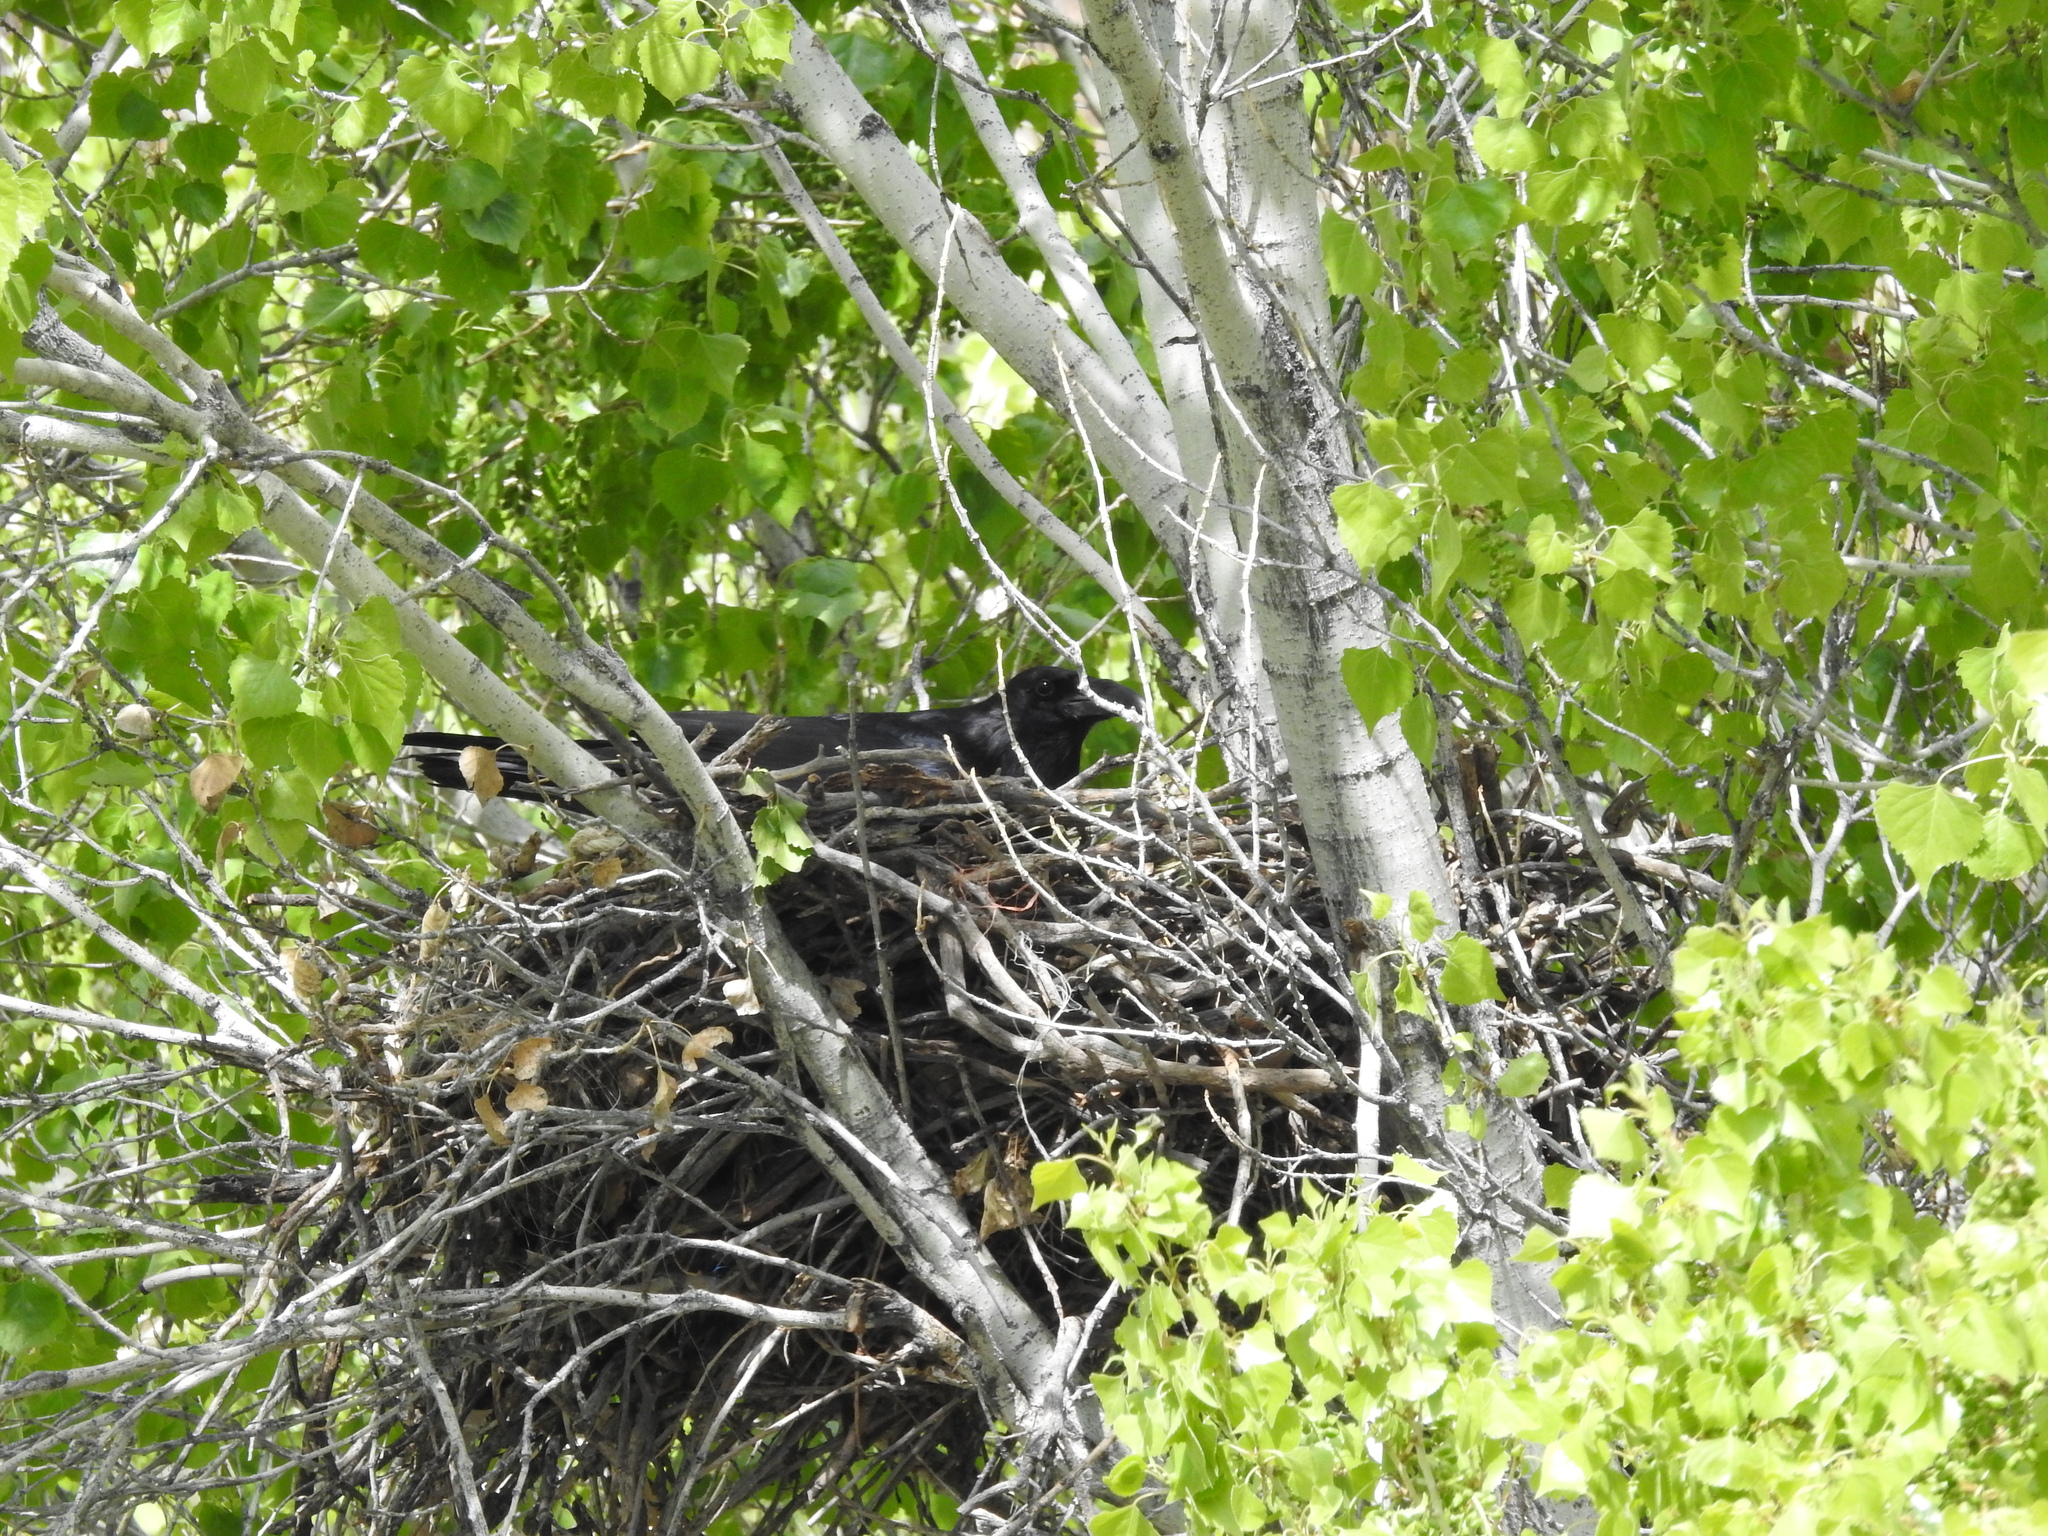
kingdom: Animalia
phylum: Chordata
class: Aves
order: Passeriformes
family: Corvidae
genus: Corvus
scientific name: Corvus corax
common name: Common raven
